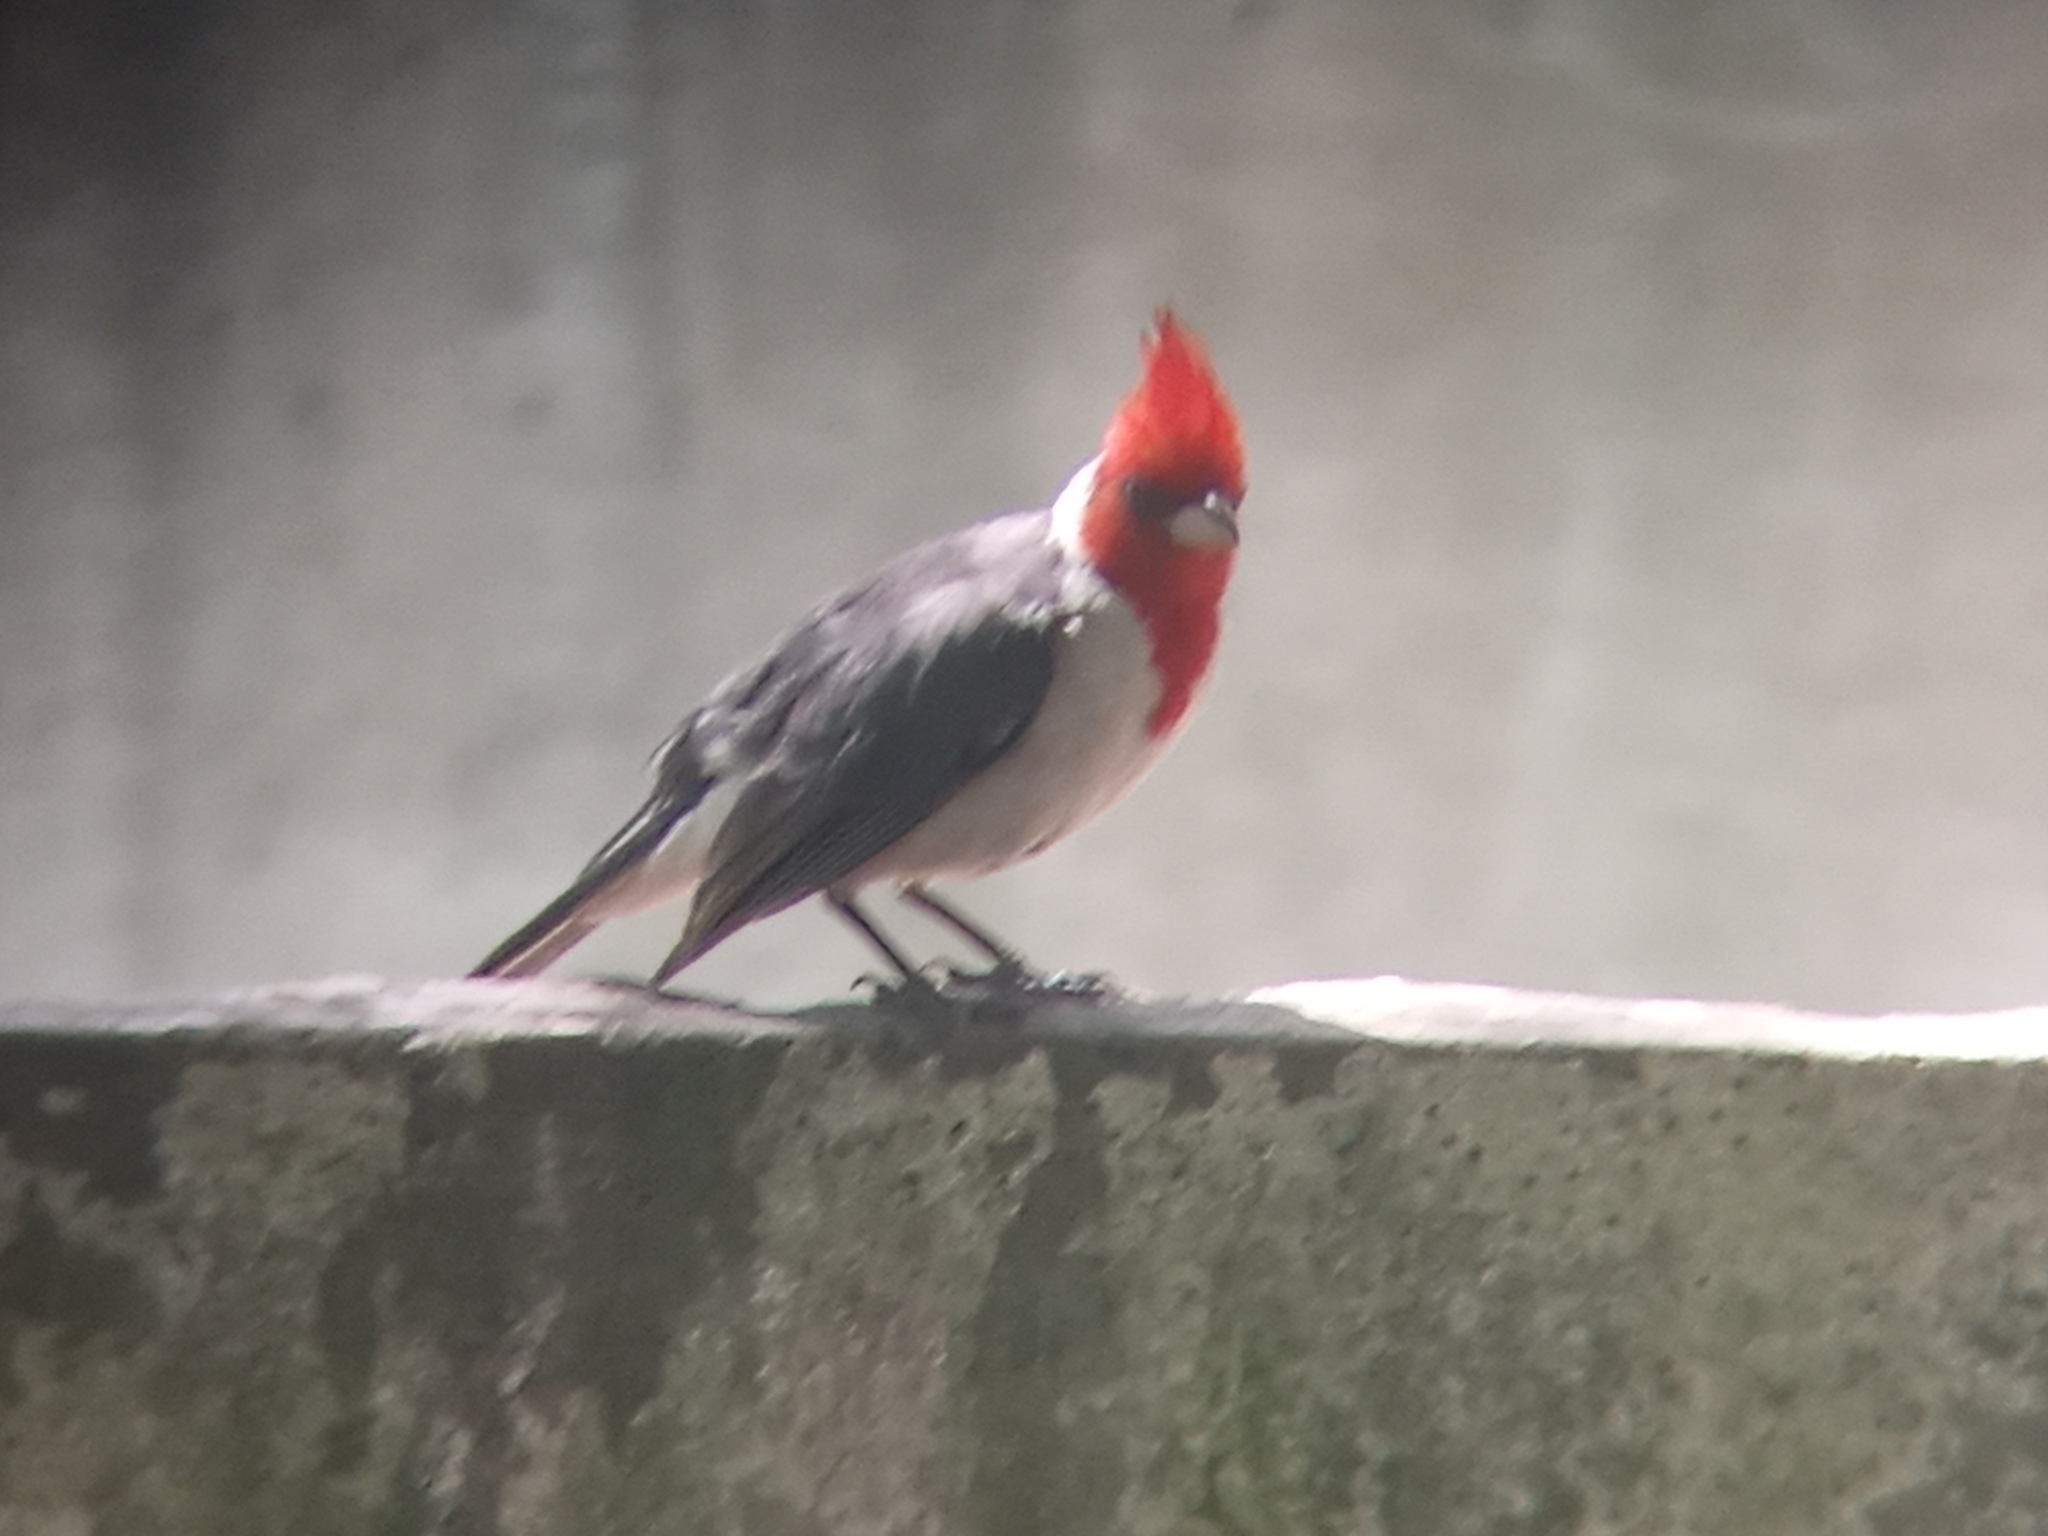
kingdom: Animalia
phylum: Chordata
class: Aves
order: Passeriformes
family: Thraupidae
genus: Paroaria
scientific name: Paroaria coronata
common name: Red-crested cardinal
